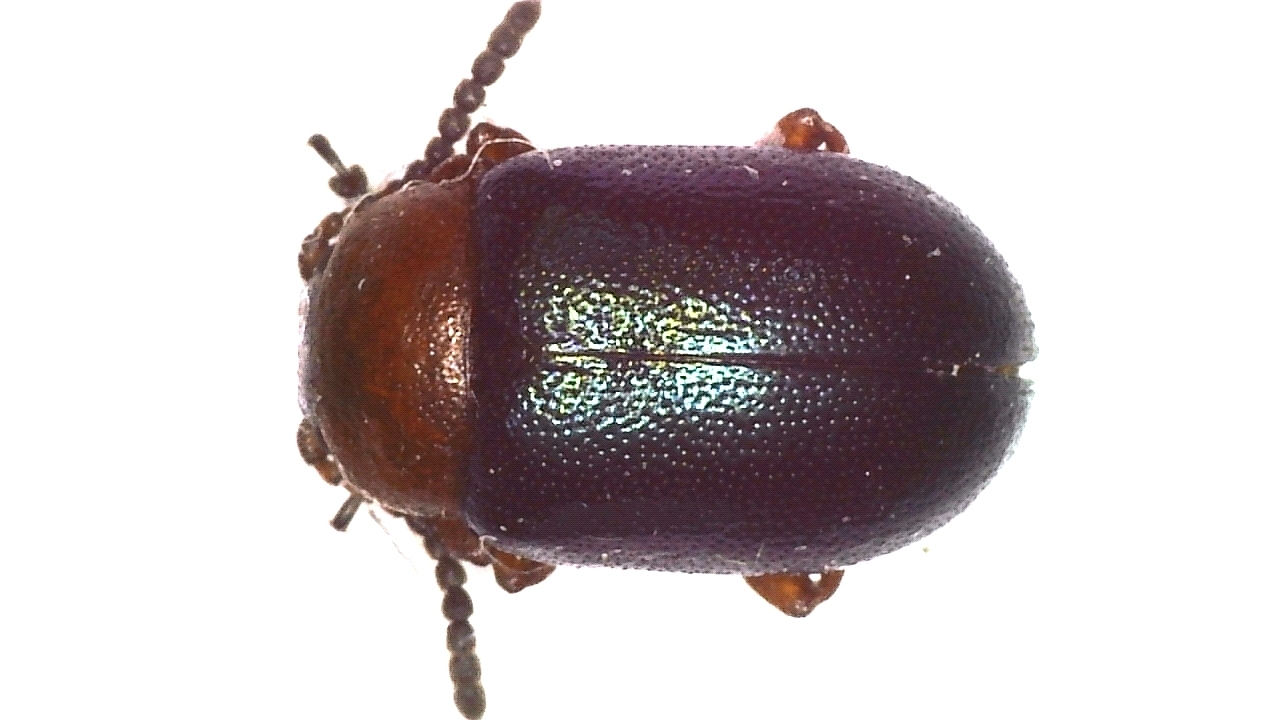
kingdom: Animalia
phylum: Arthropoda
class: Insecta
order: Coleoptera
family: Chrysomelidae
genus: Gastrophysa
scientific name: Gastrophysa polygoni
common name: Knotweed leaf beetle
